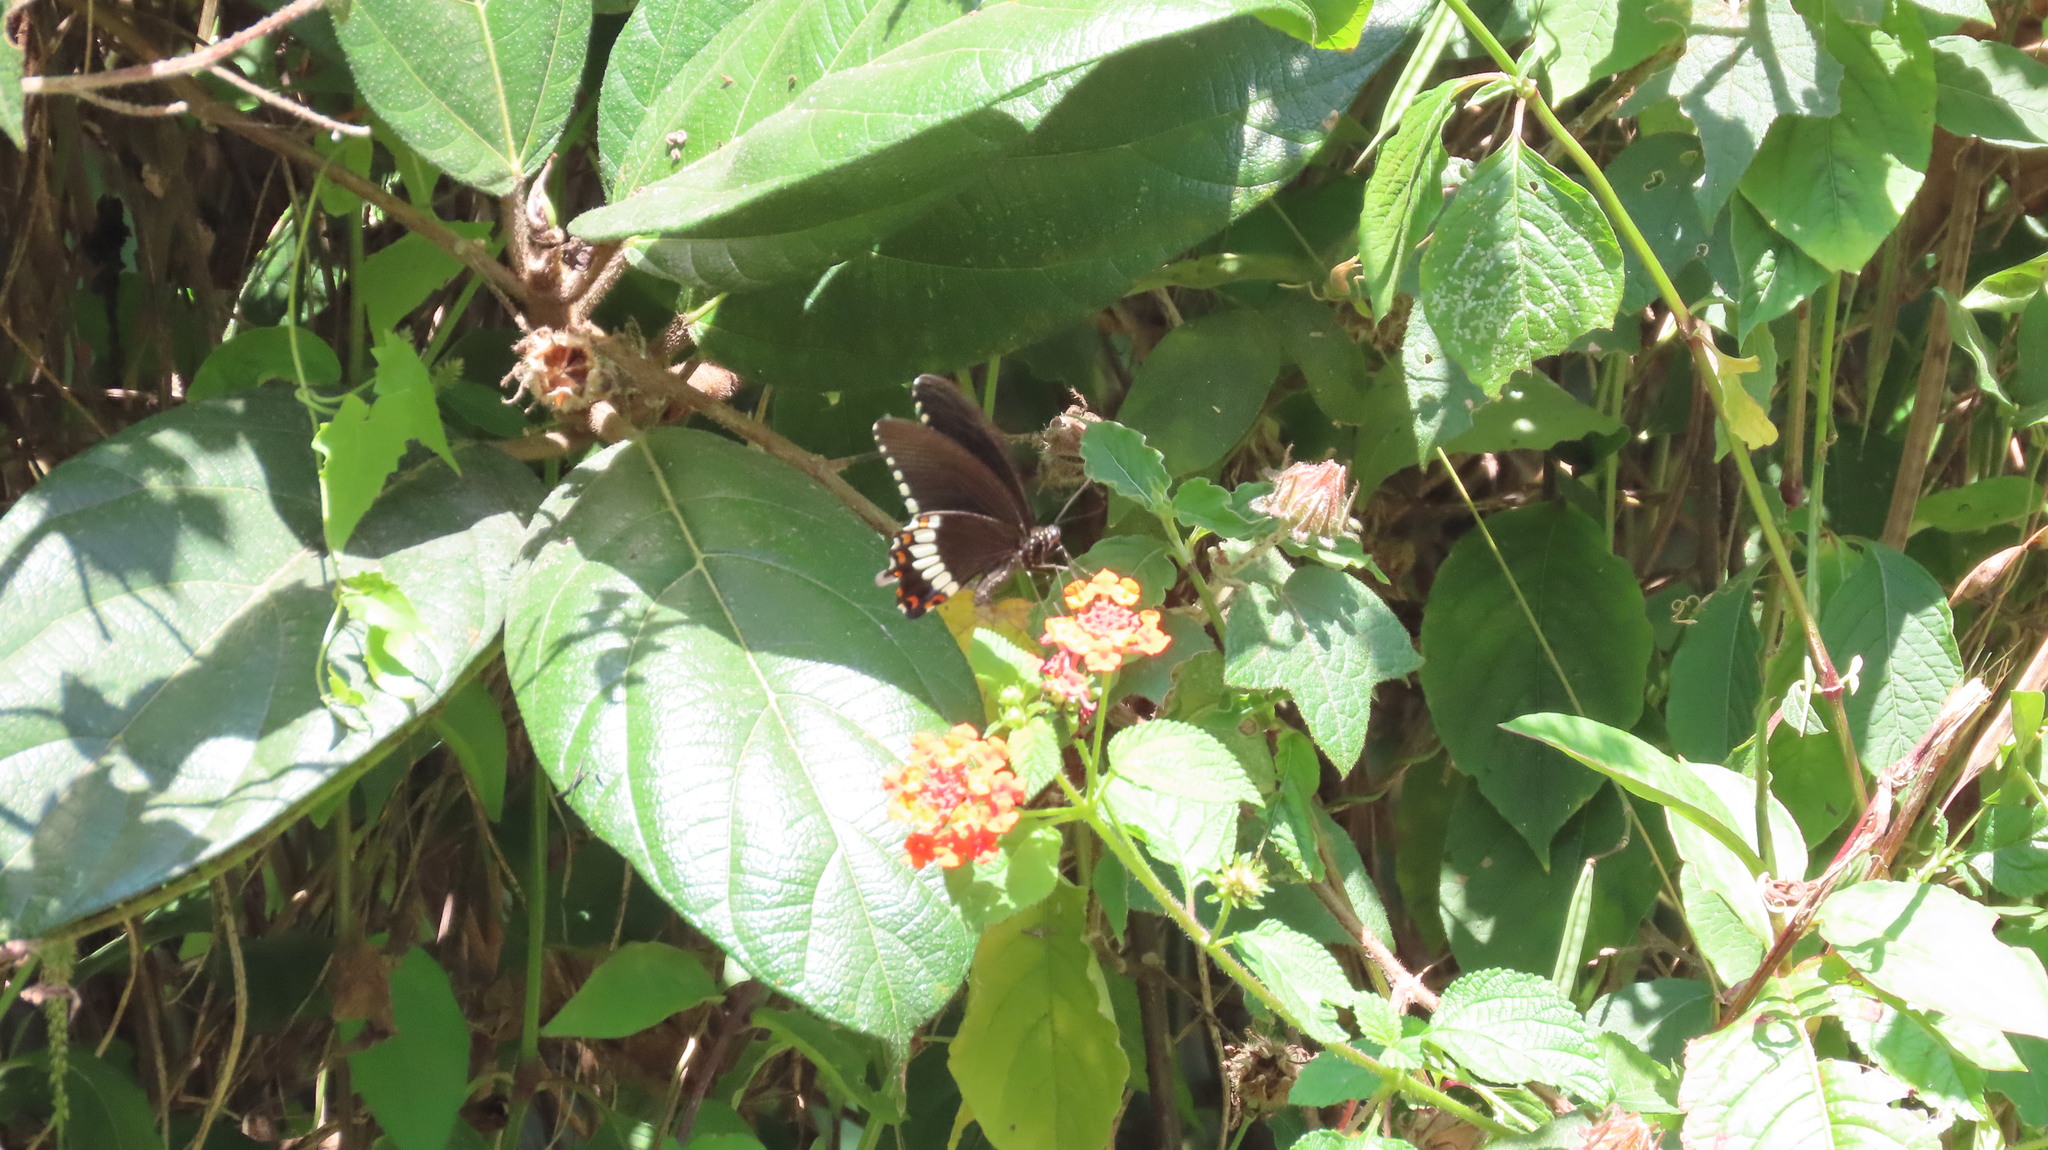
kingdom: Animalia
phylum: Arthropoda
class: Insecta
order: Lepidoptera
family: Papilionidae
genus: Papilio
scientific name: Papilio polytes
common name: Common mormon
